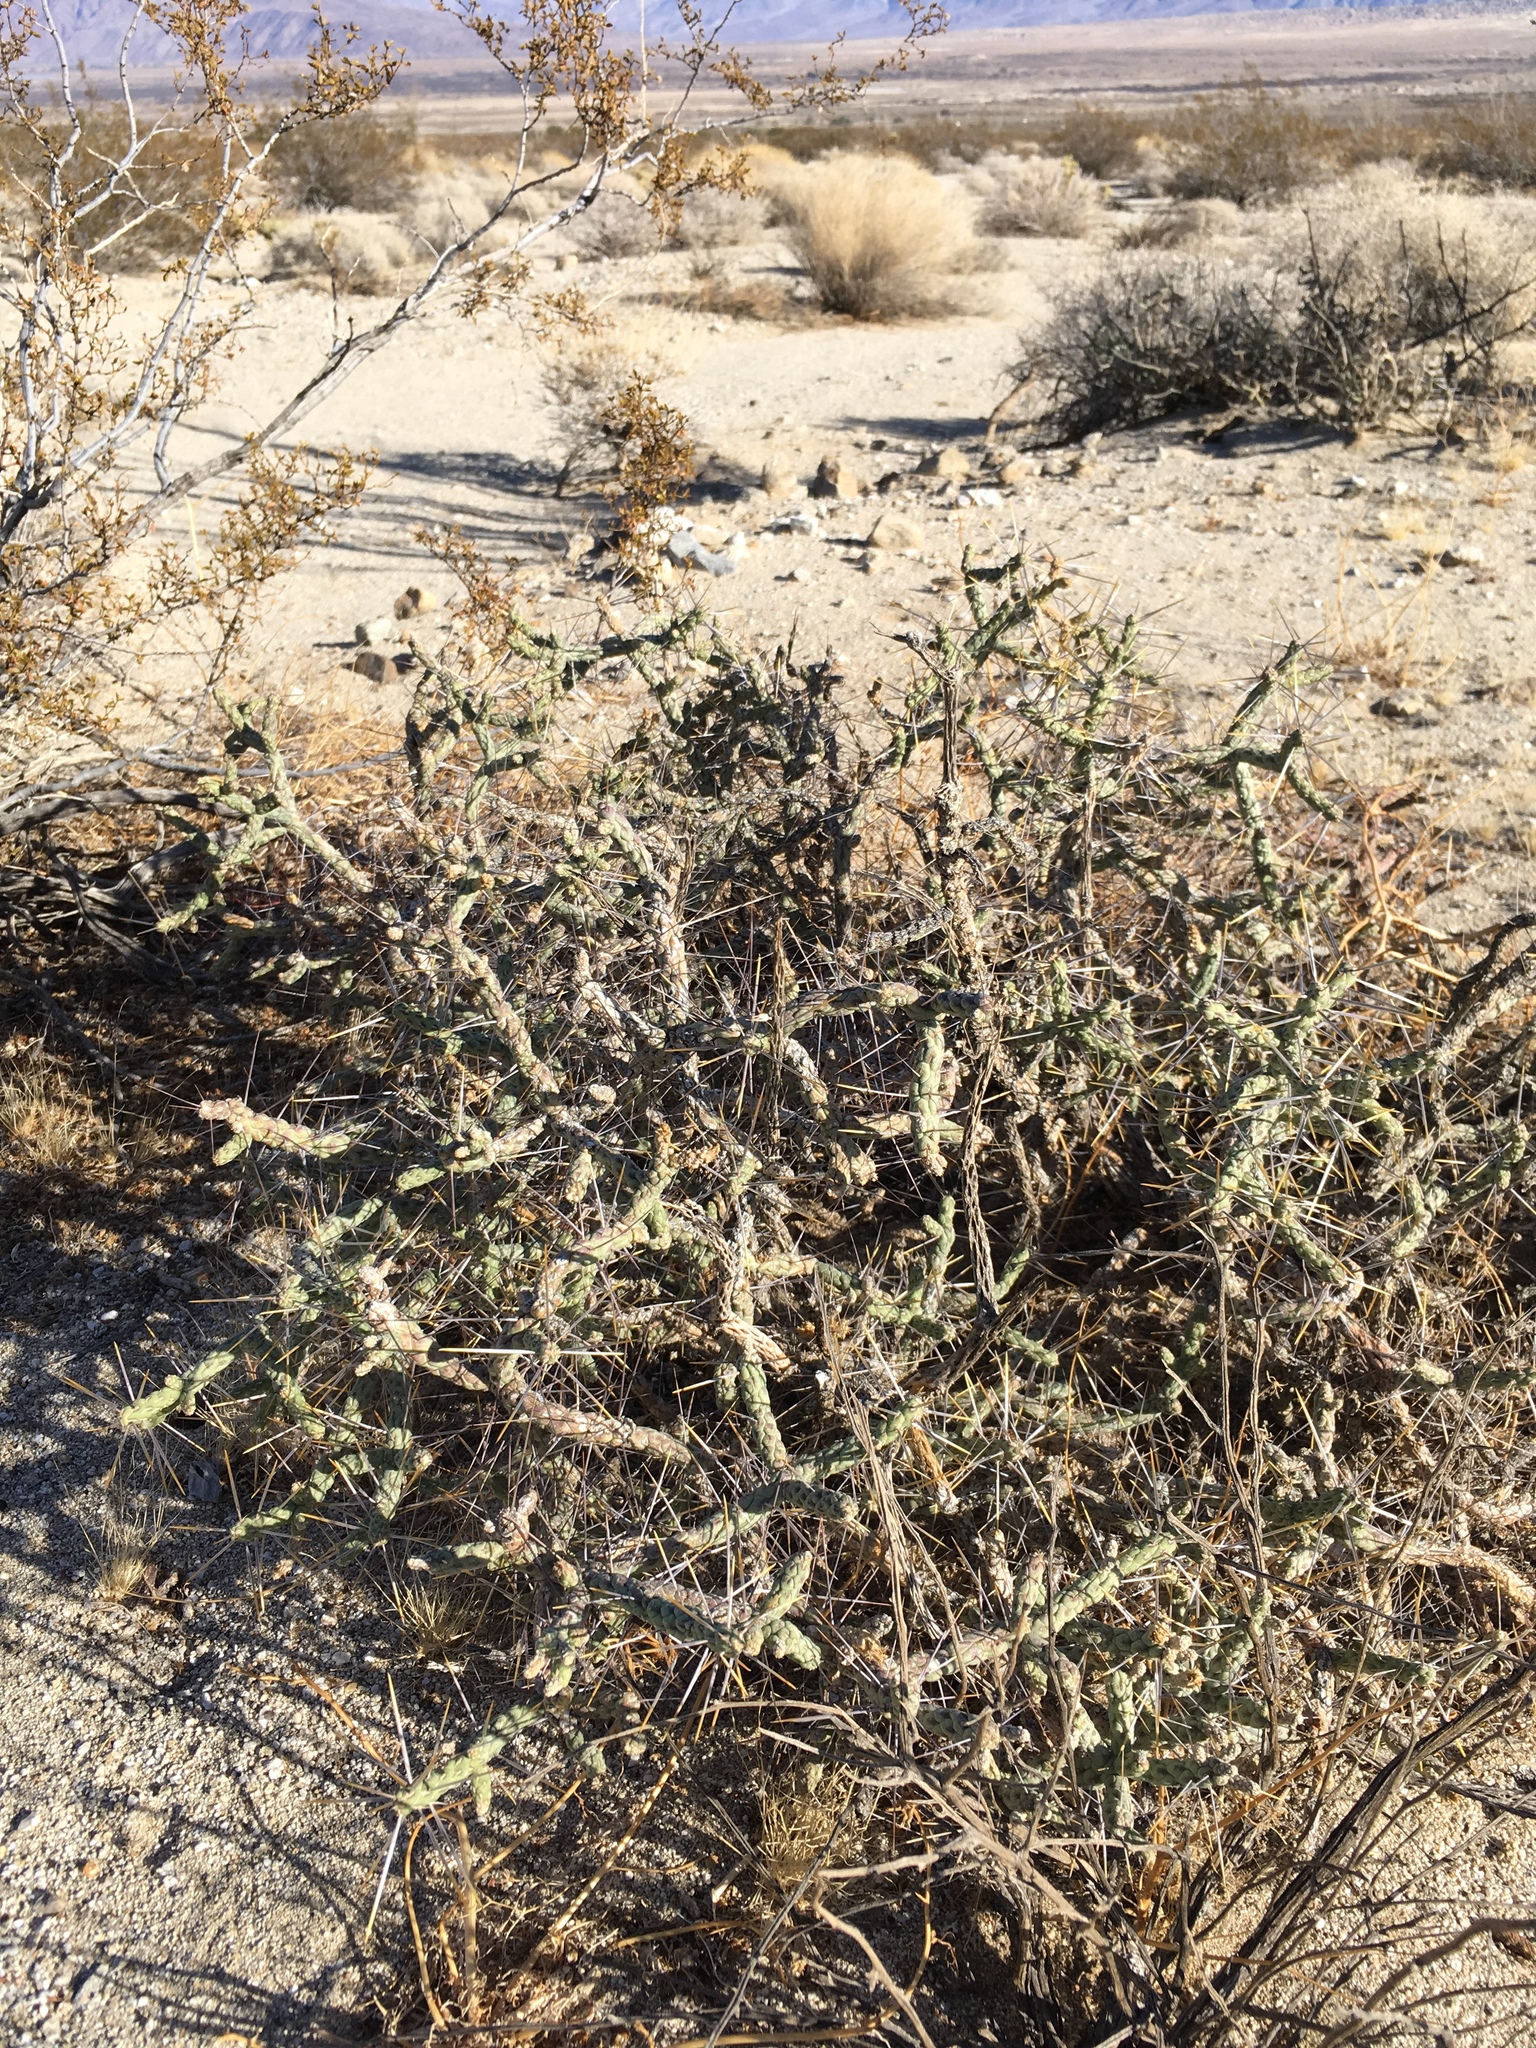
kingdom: Plantae
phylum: Tracheophyta
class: Magnoliopsida
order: Caryophyllales
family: Cactaceae
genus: Cylindropuntia
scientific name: Cylindropuntia ramosissima
